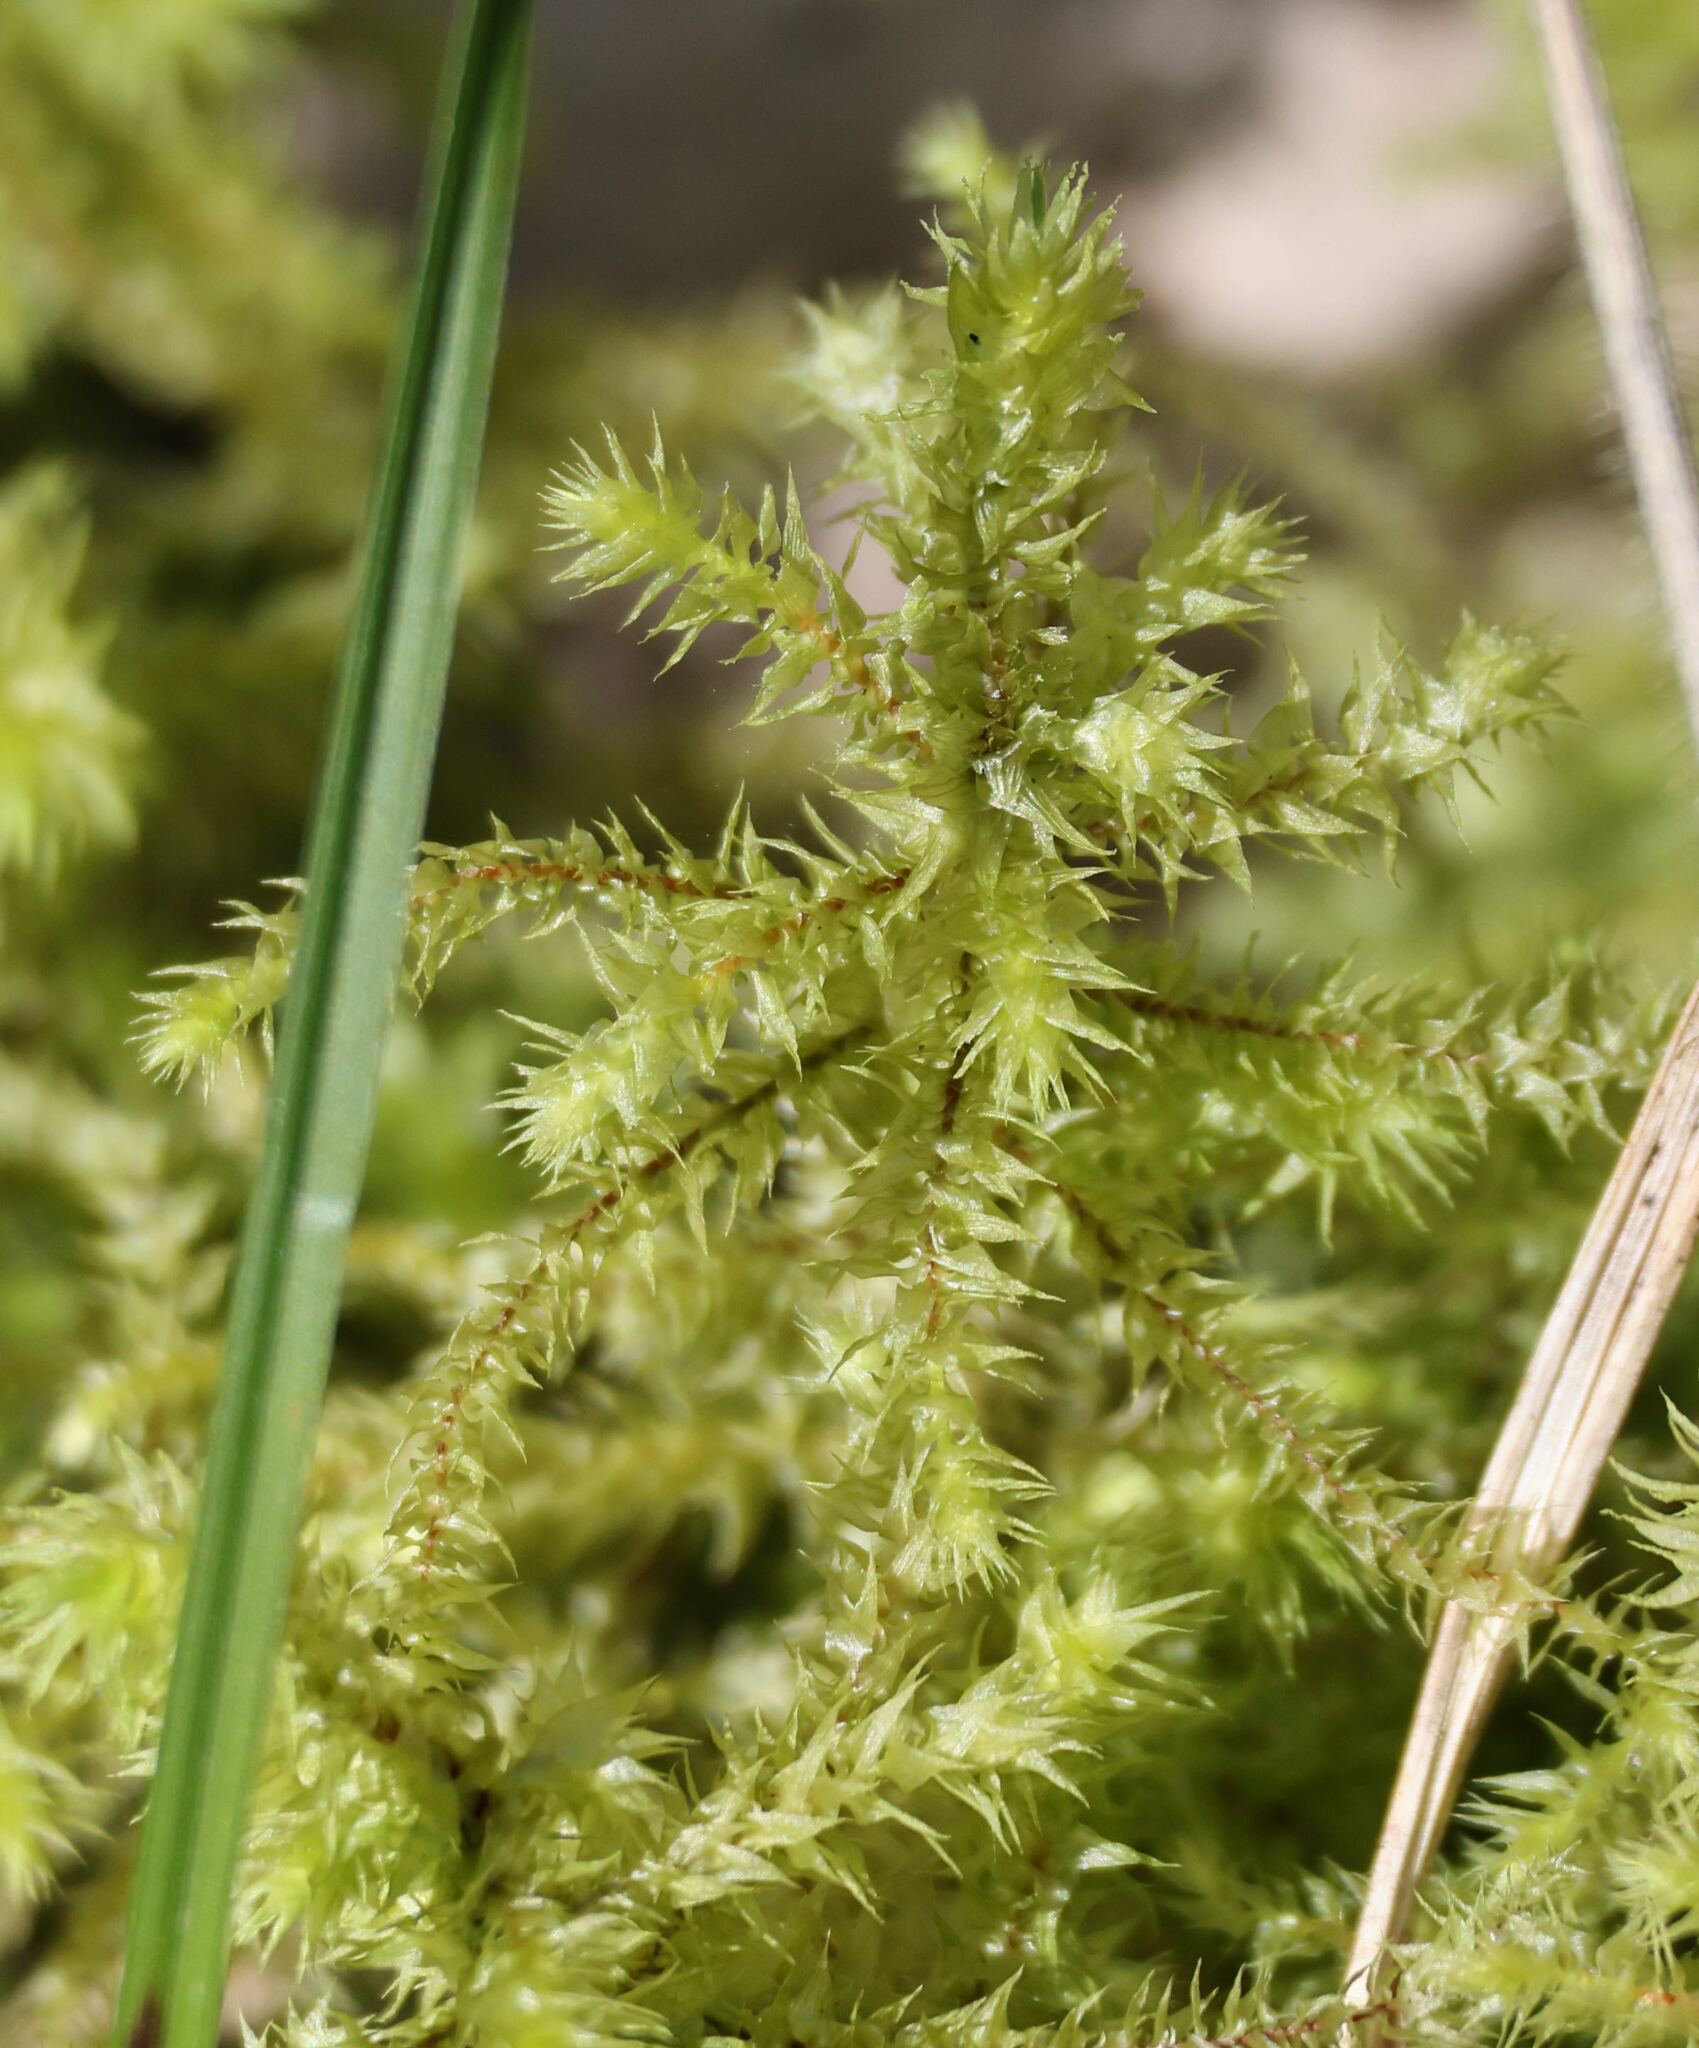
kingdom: Plantae
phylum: Bryophyta
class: Bryopsida
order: Hypnales
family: Hylocomiaceae
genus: Hylocomiadelphus
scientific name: Hylocomiadelphus triquetrus
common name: Rough goose neck moss
